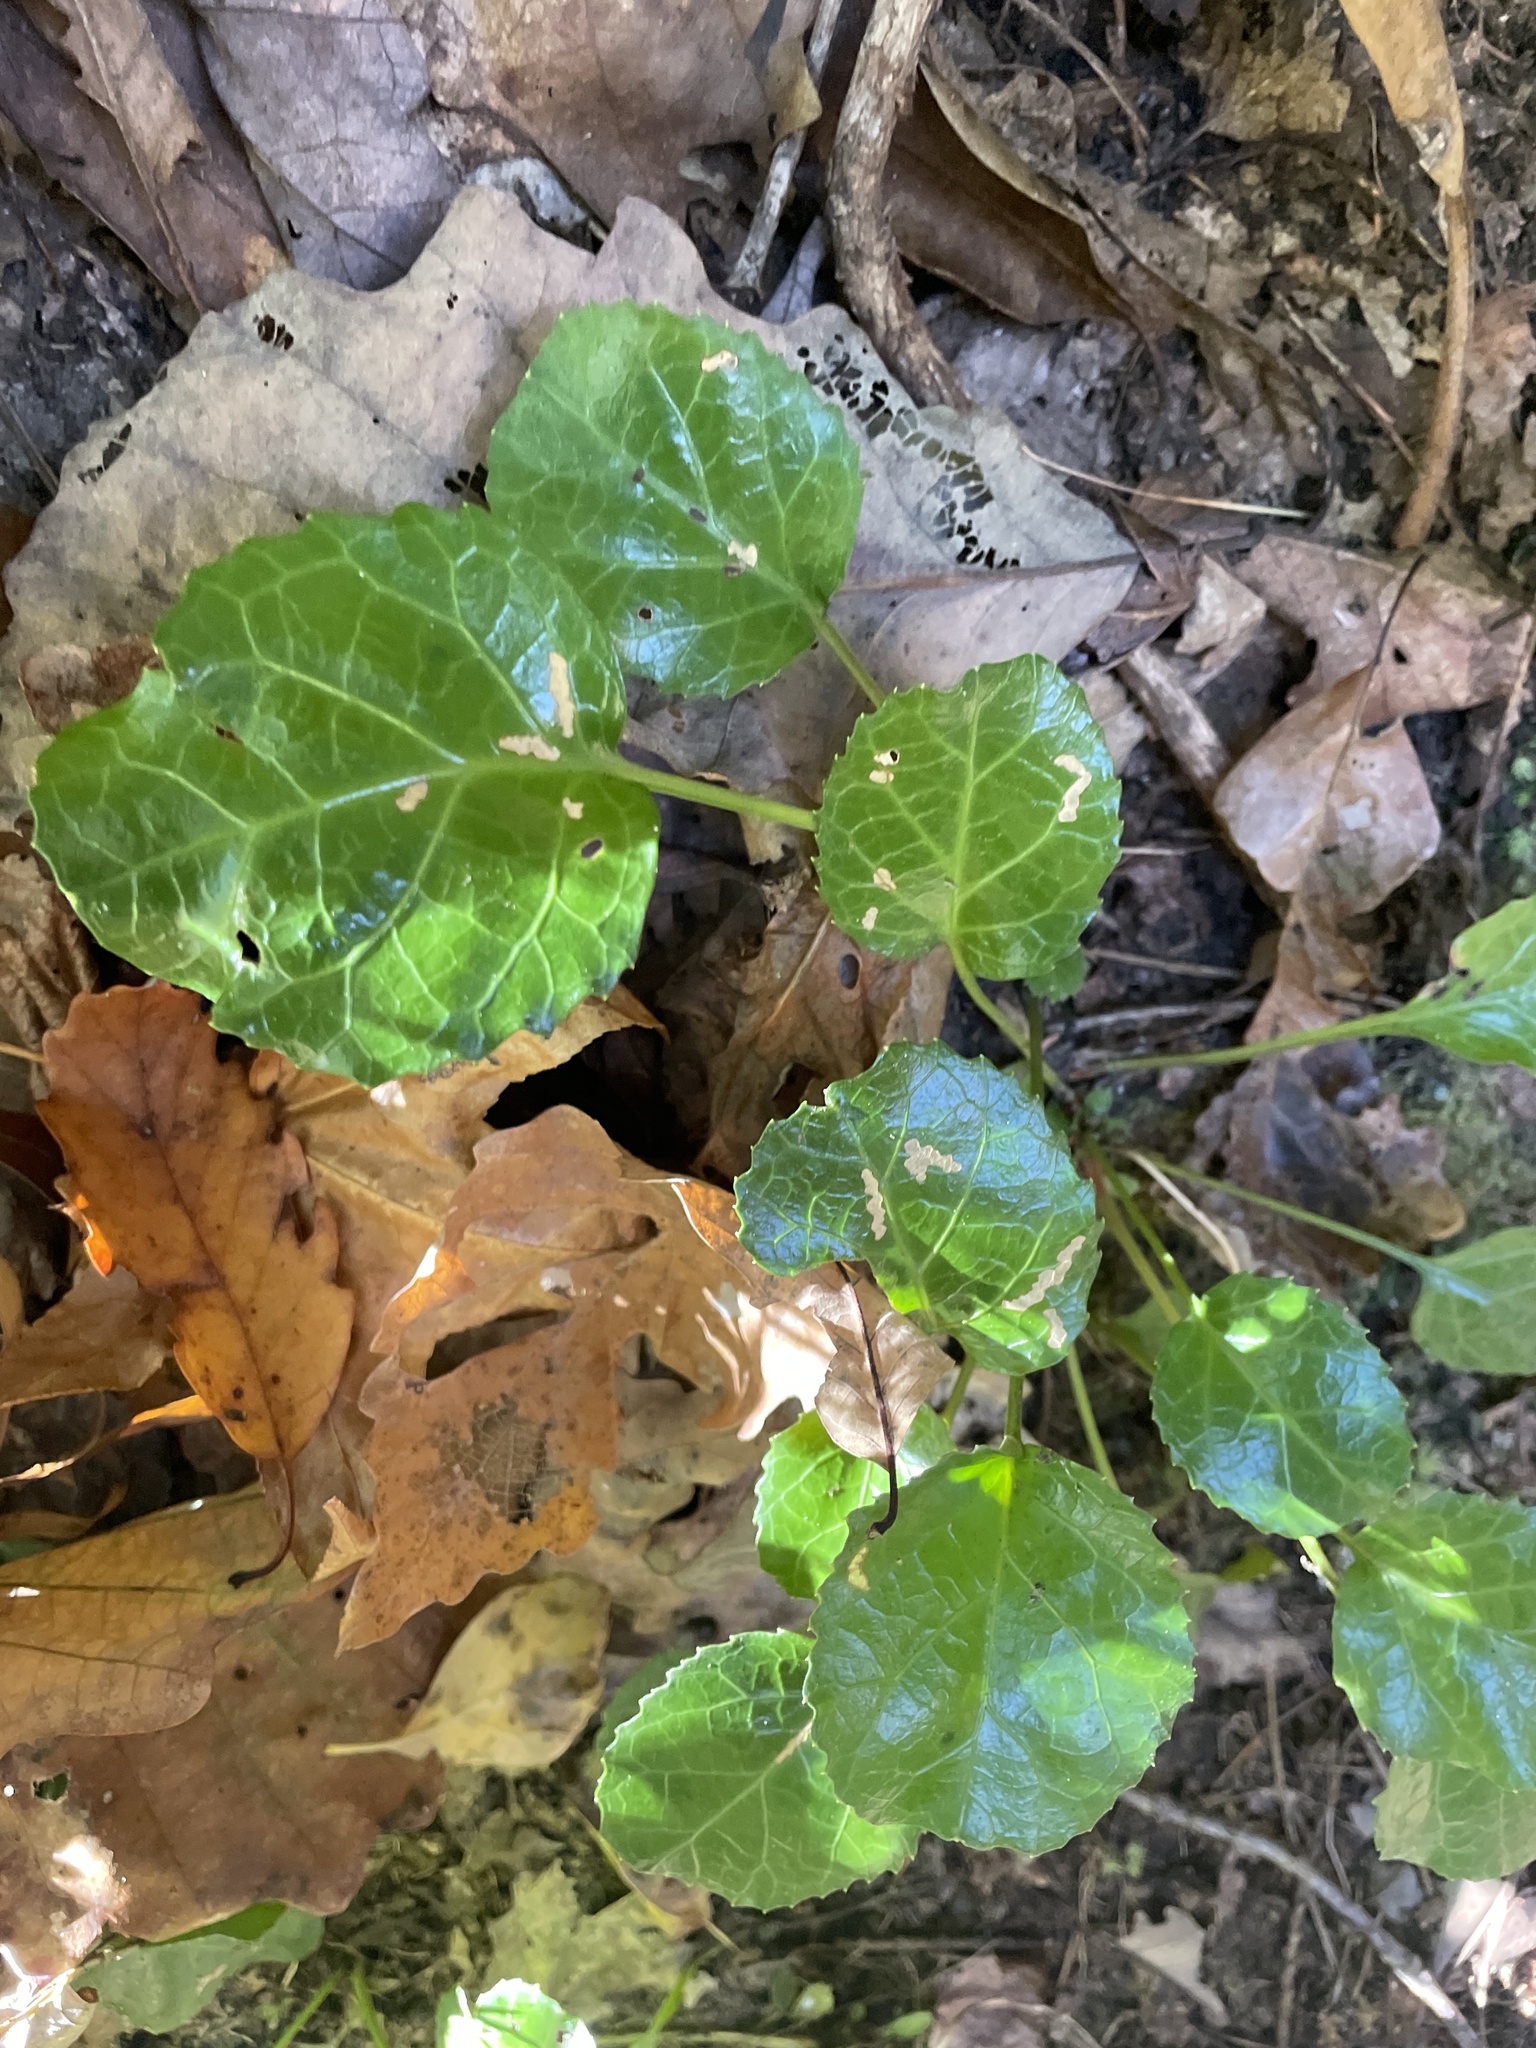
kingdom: Plantae
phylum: Tracheophyta
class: Magnoliopsida
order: Ericales
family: Diapensiaceae
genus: Shortia
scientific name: Shortia galacifolia
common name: Shortia
